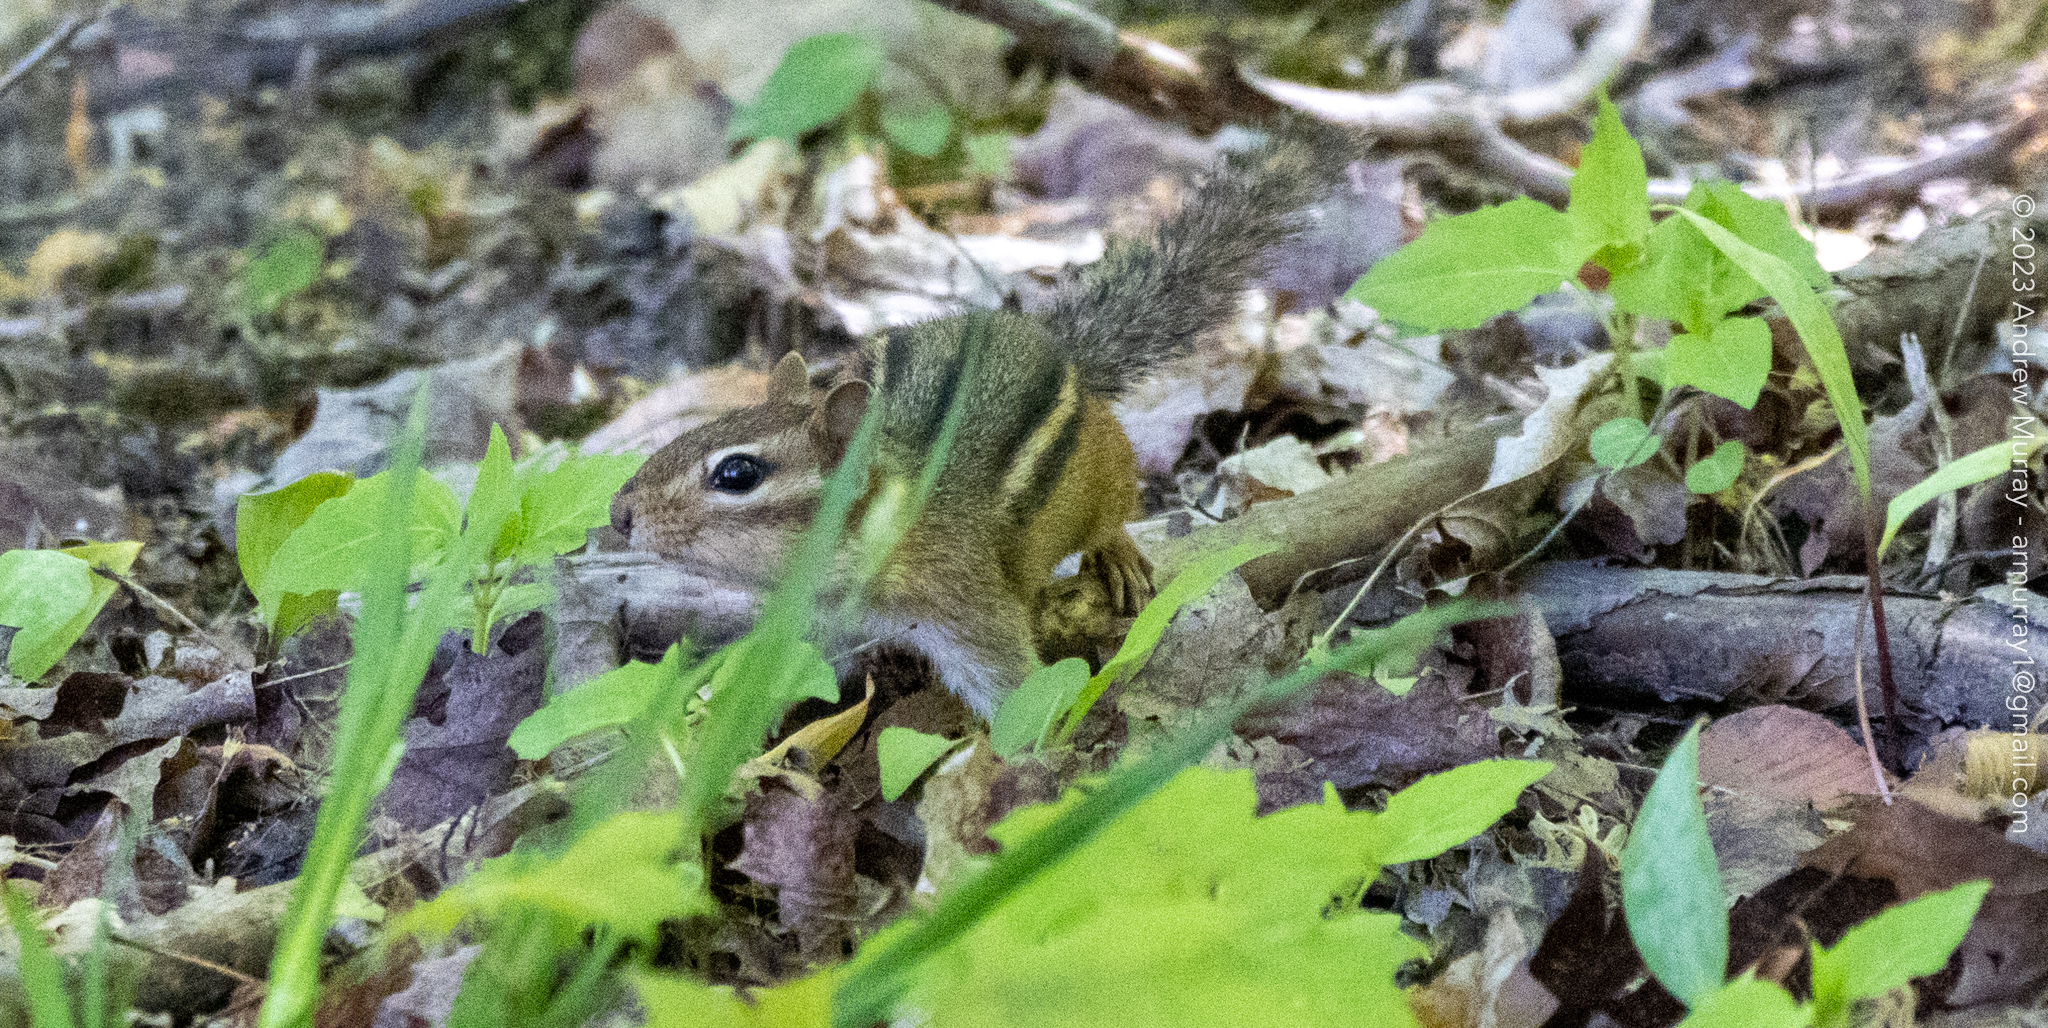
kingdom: Animalia
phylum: Chordata
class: Mammalia
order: Rodentia
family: Sciuridae
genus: Tamias
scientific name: Tamias striatus
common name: Eastern chipmunk
